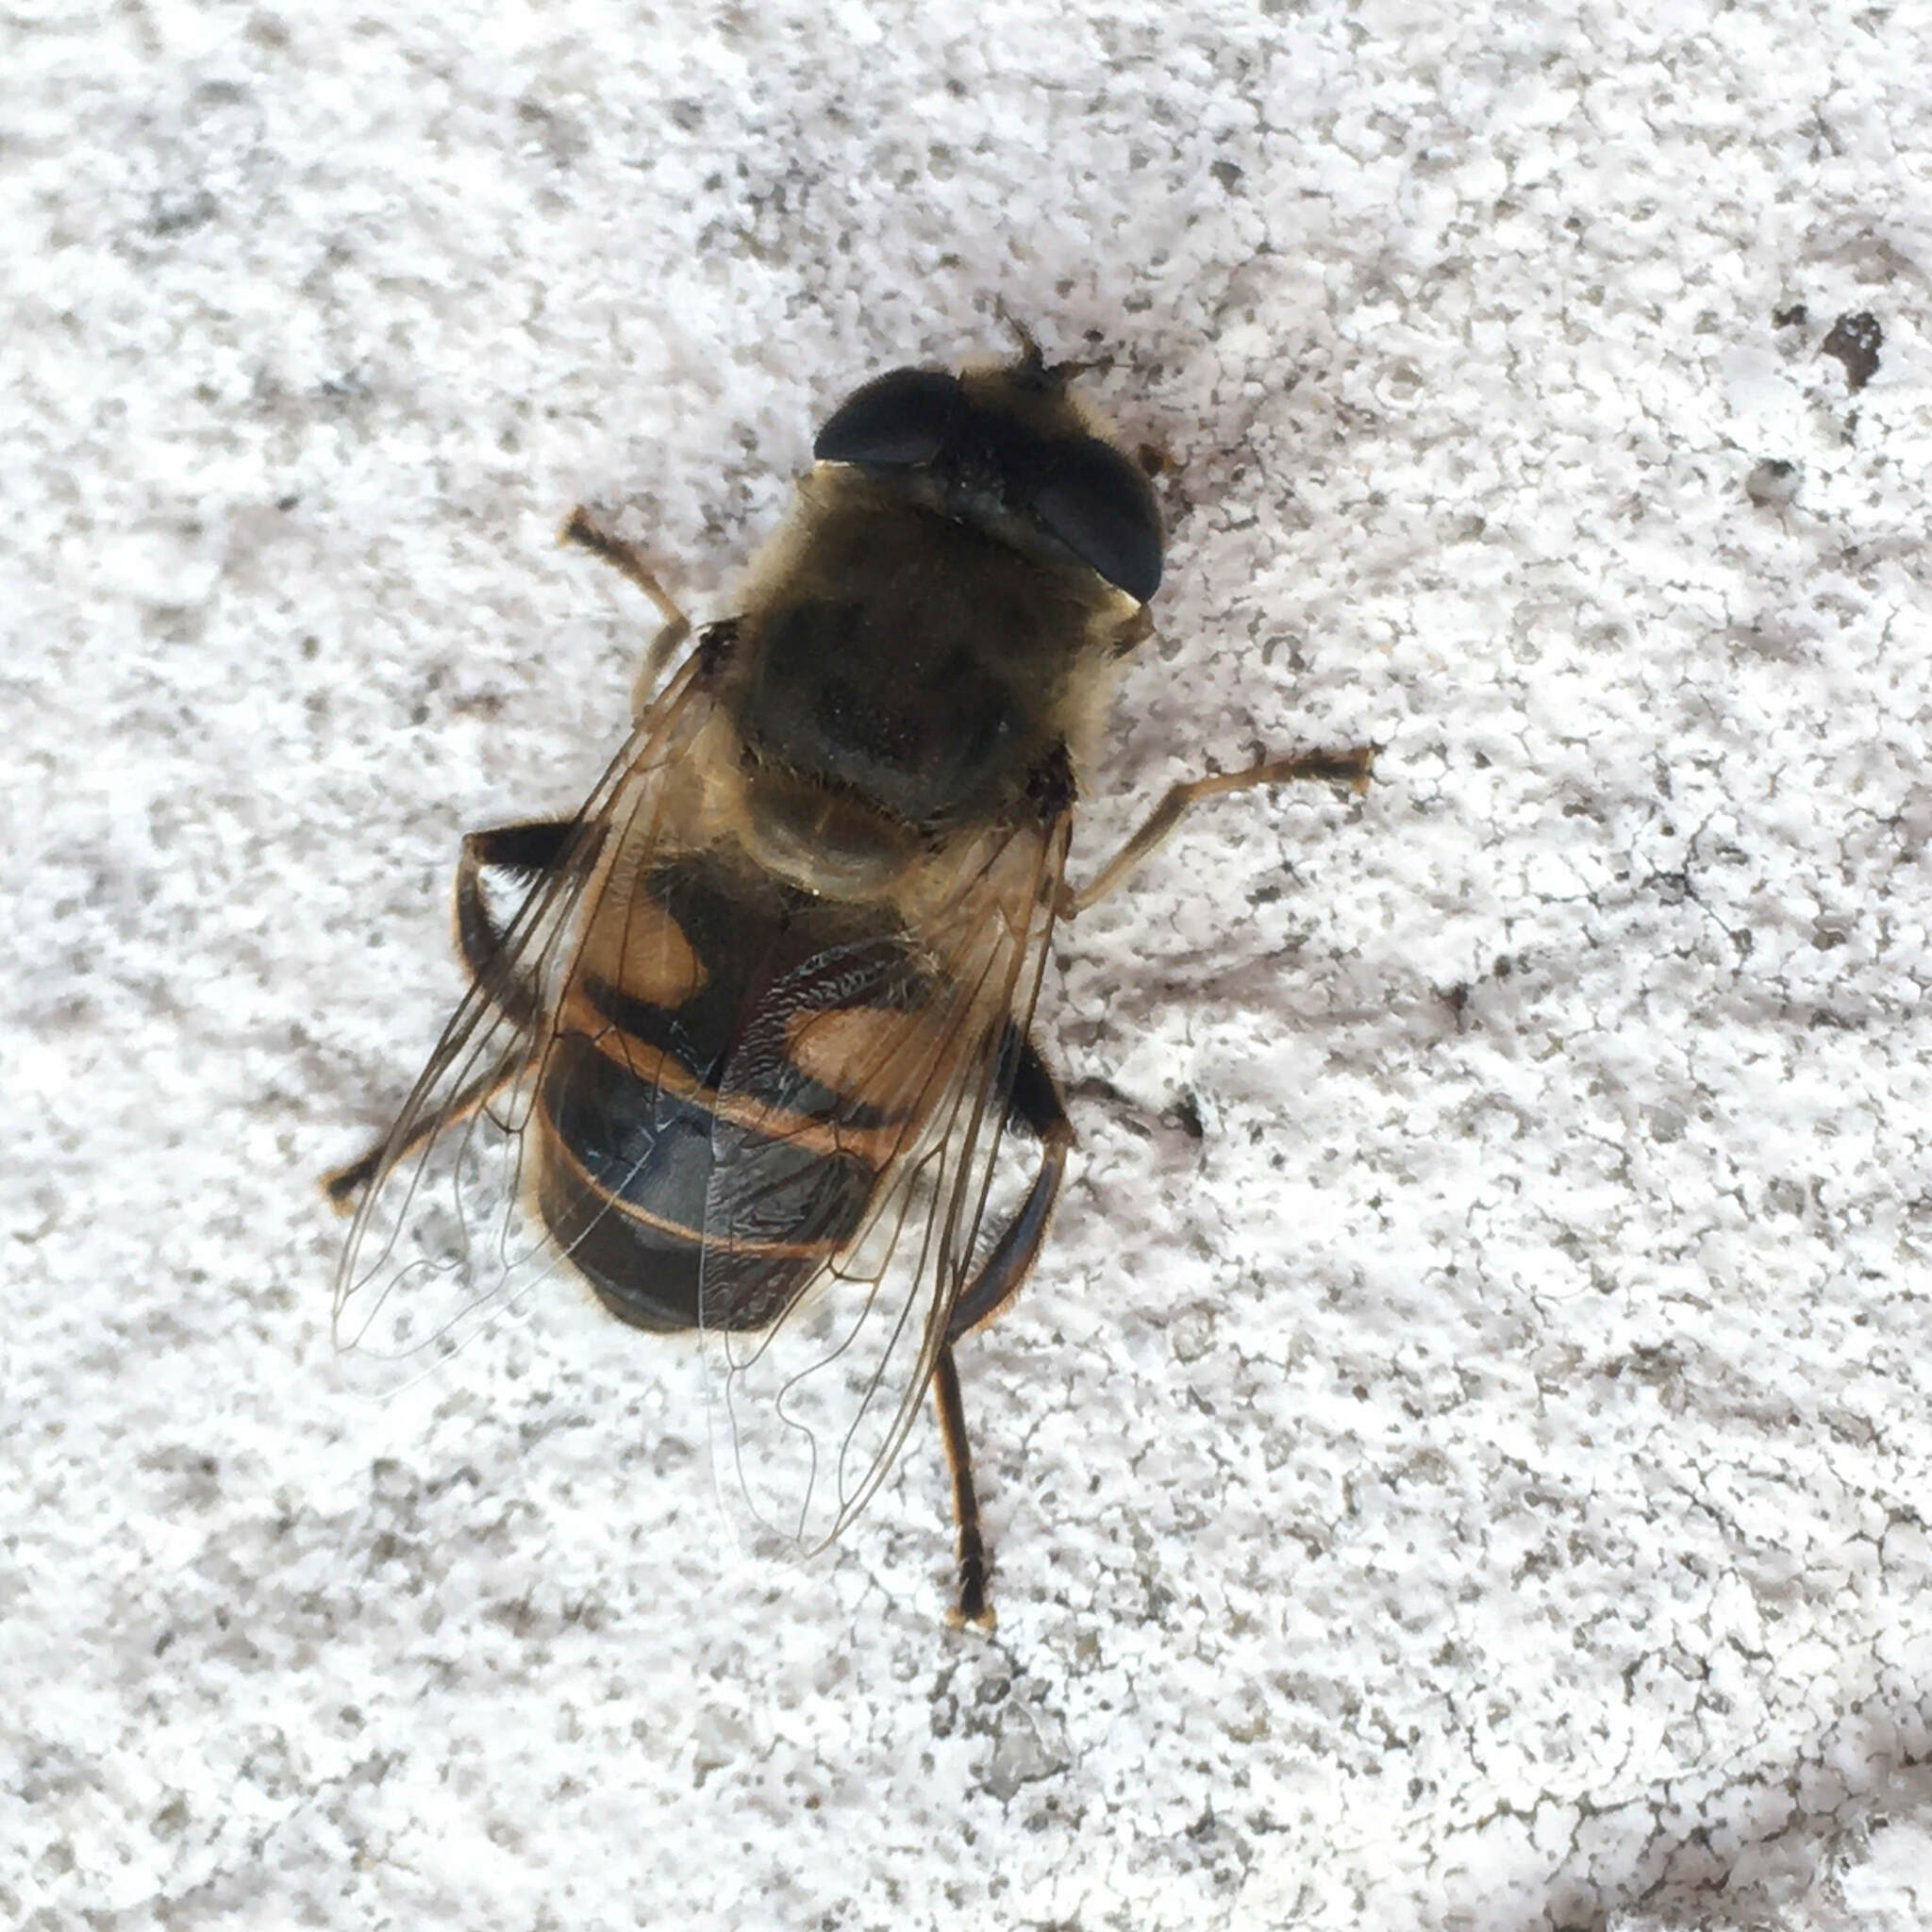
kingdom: Animalia
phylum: Arthropoda
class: Insecta
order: Diptera
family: Syrphidae
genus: Eristalis
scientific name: Eristalis tenax
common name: Drone fly
